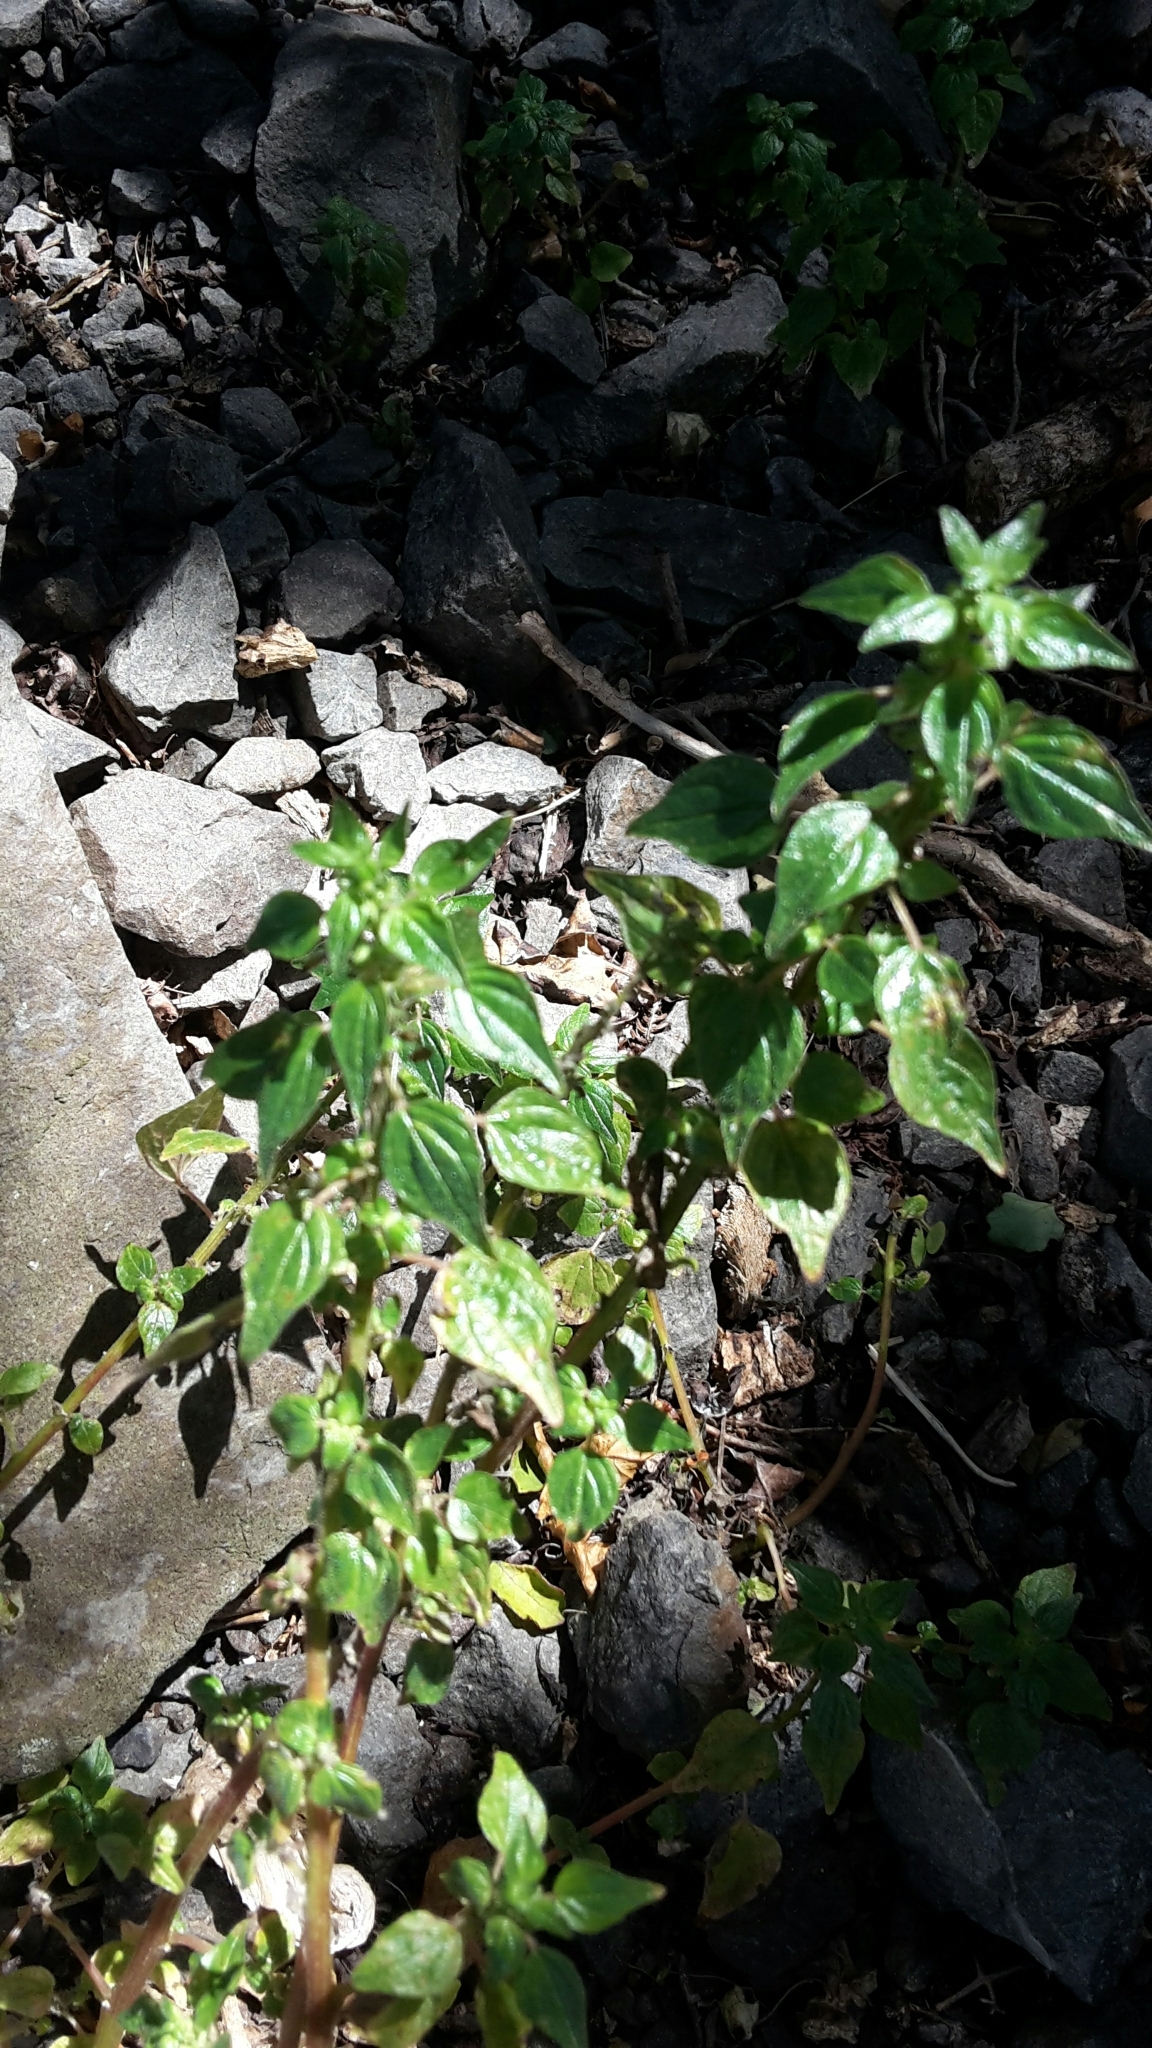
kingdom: Plantae
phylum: Tracheophyta
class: Magnoliopsida
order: Rosales
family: Urticaceae
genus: Parietaria
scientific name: Parietaria debilis
